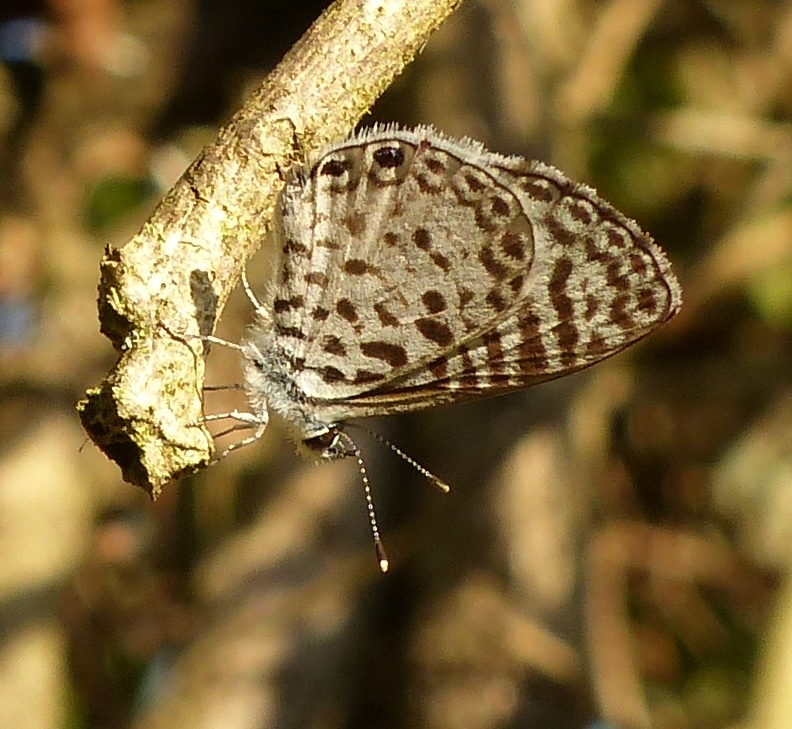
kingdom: Animalia
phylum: Arthropoda
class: Insecta
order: Lepidoptera
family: Lycaenidae
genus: Leptotes
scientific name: Leptotes cassius
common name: Cassius blue
